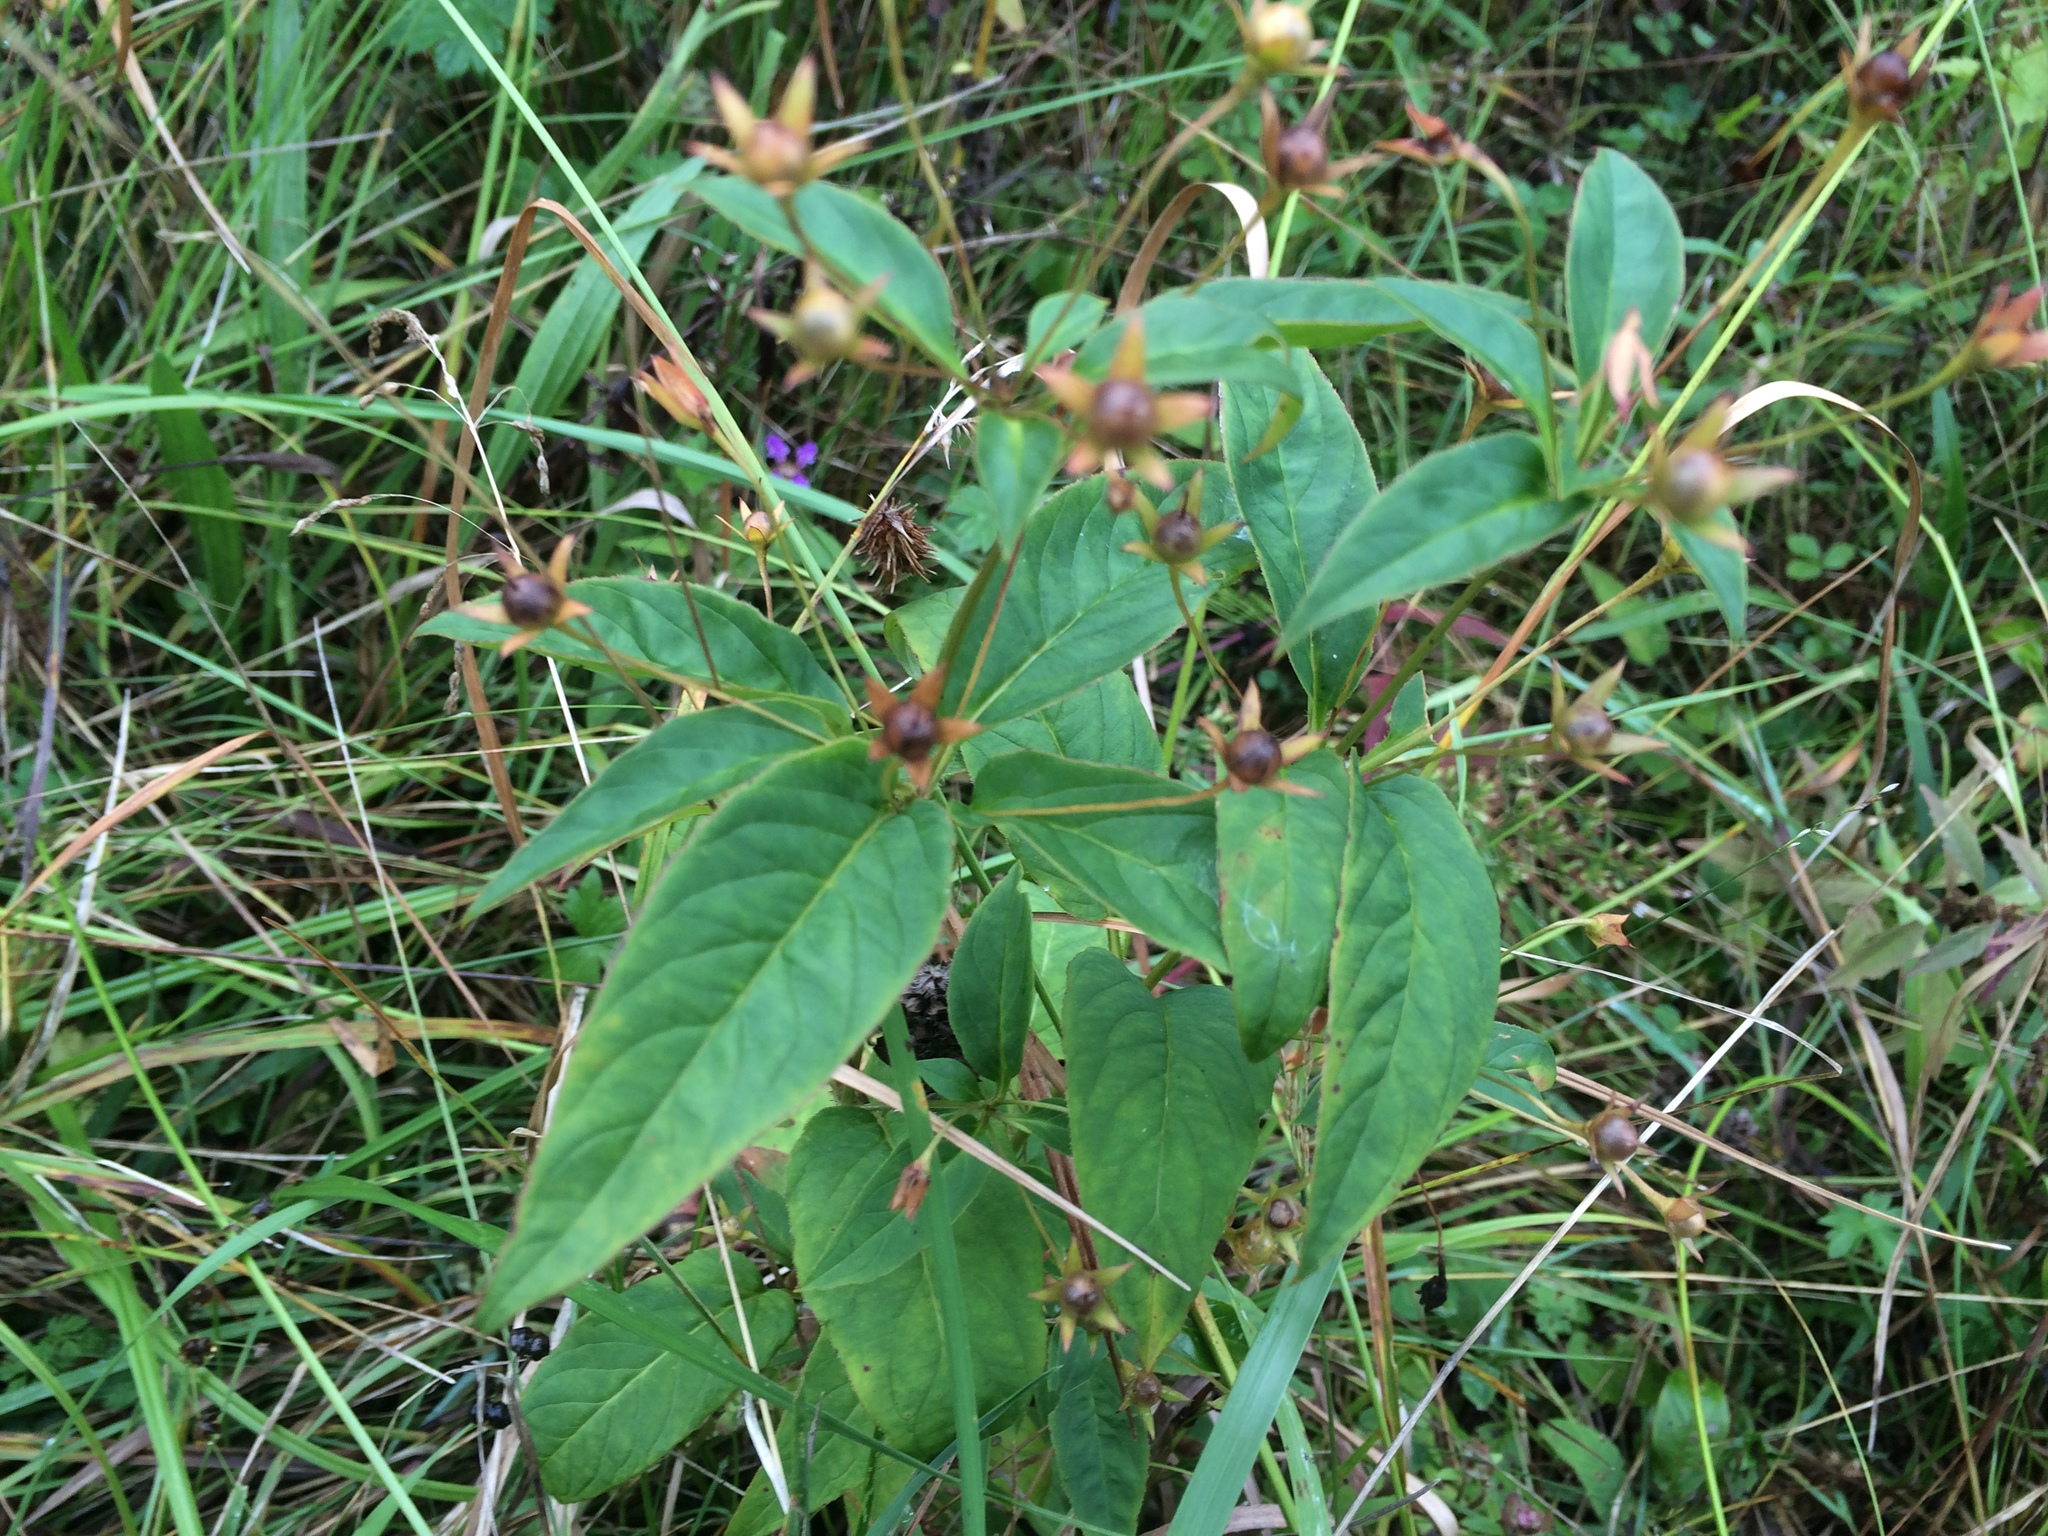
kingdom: Plantae
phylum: Tracheophyta
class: Magnoliopsida
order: Ericales
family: Primulaceae
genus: Lysimachia
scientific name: Lysimachia ciliata
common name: Fringed loosestrife
